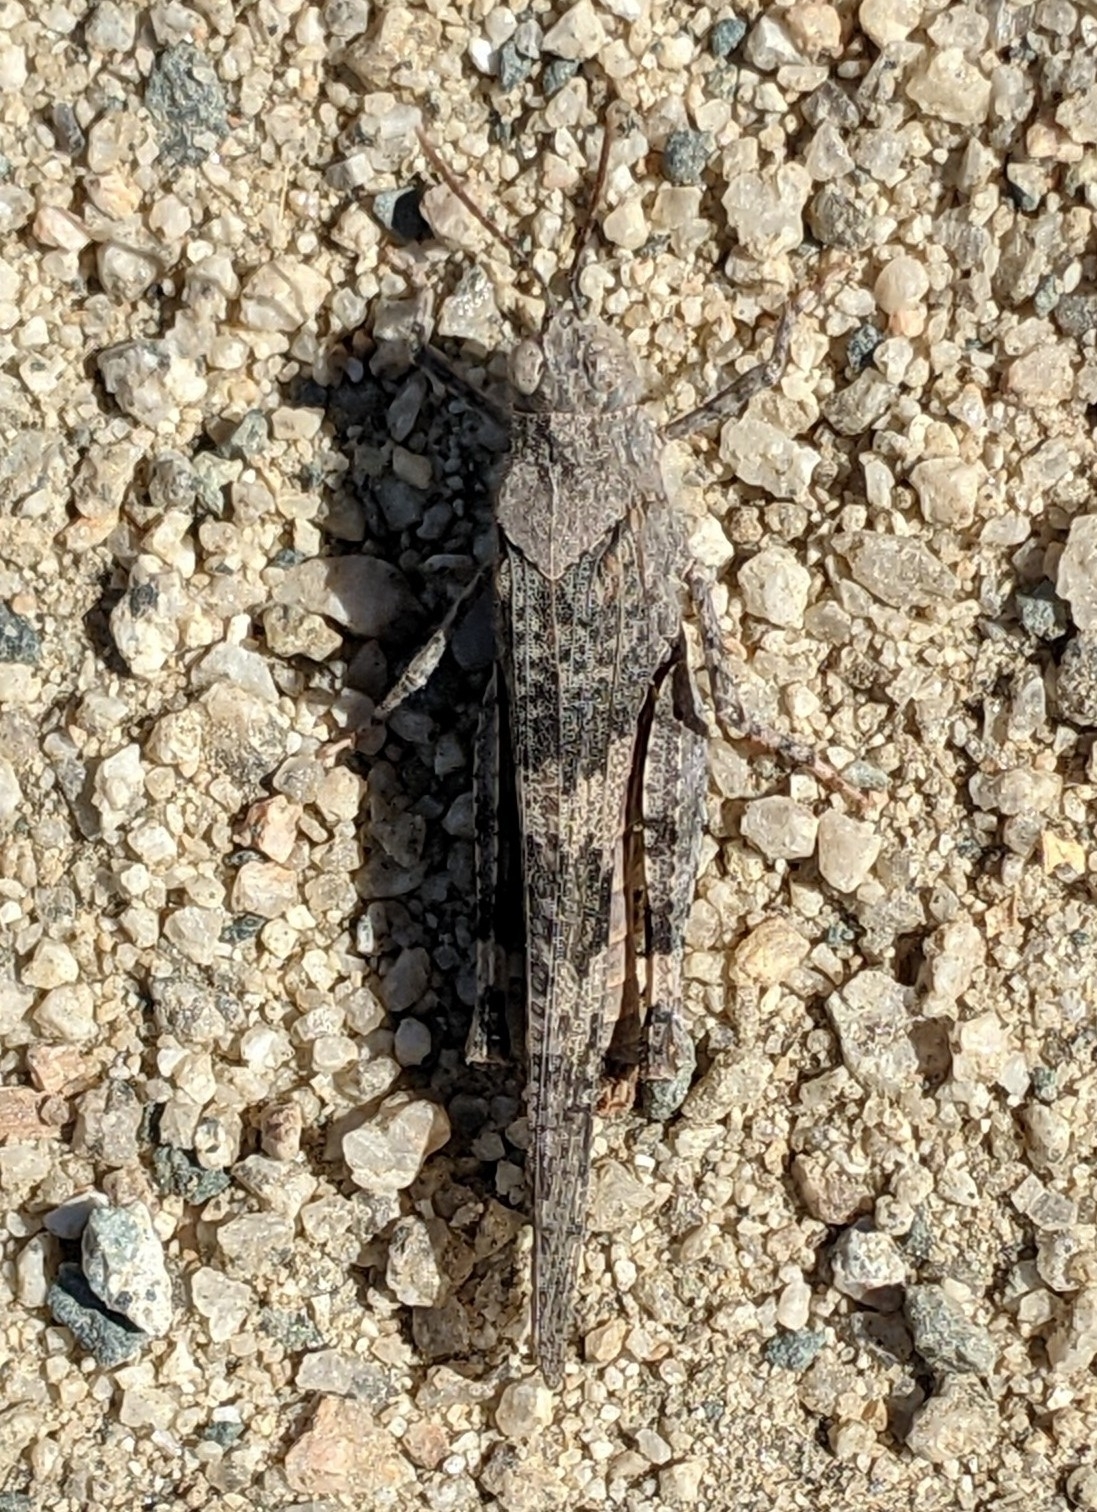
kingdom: Animalia
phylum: Arthropoda
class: Insecta
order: Orthoptera
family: Acrididae
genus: Trimerotropis
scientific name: Trimerotropis pallidipennis
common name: Pallid-winged grasshopper
